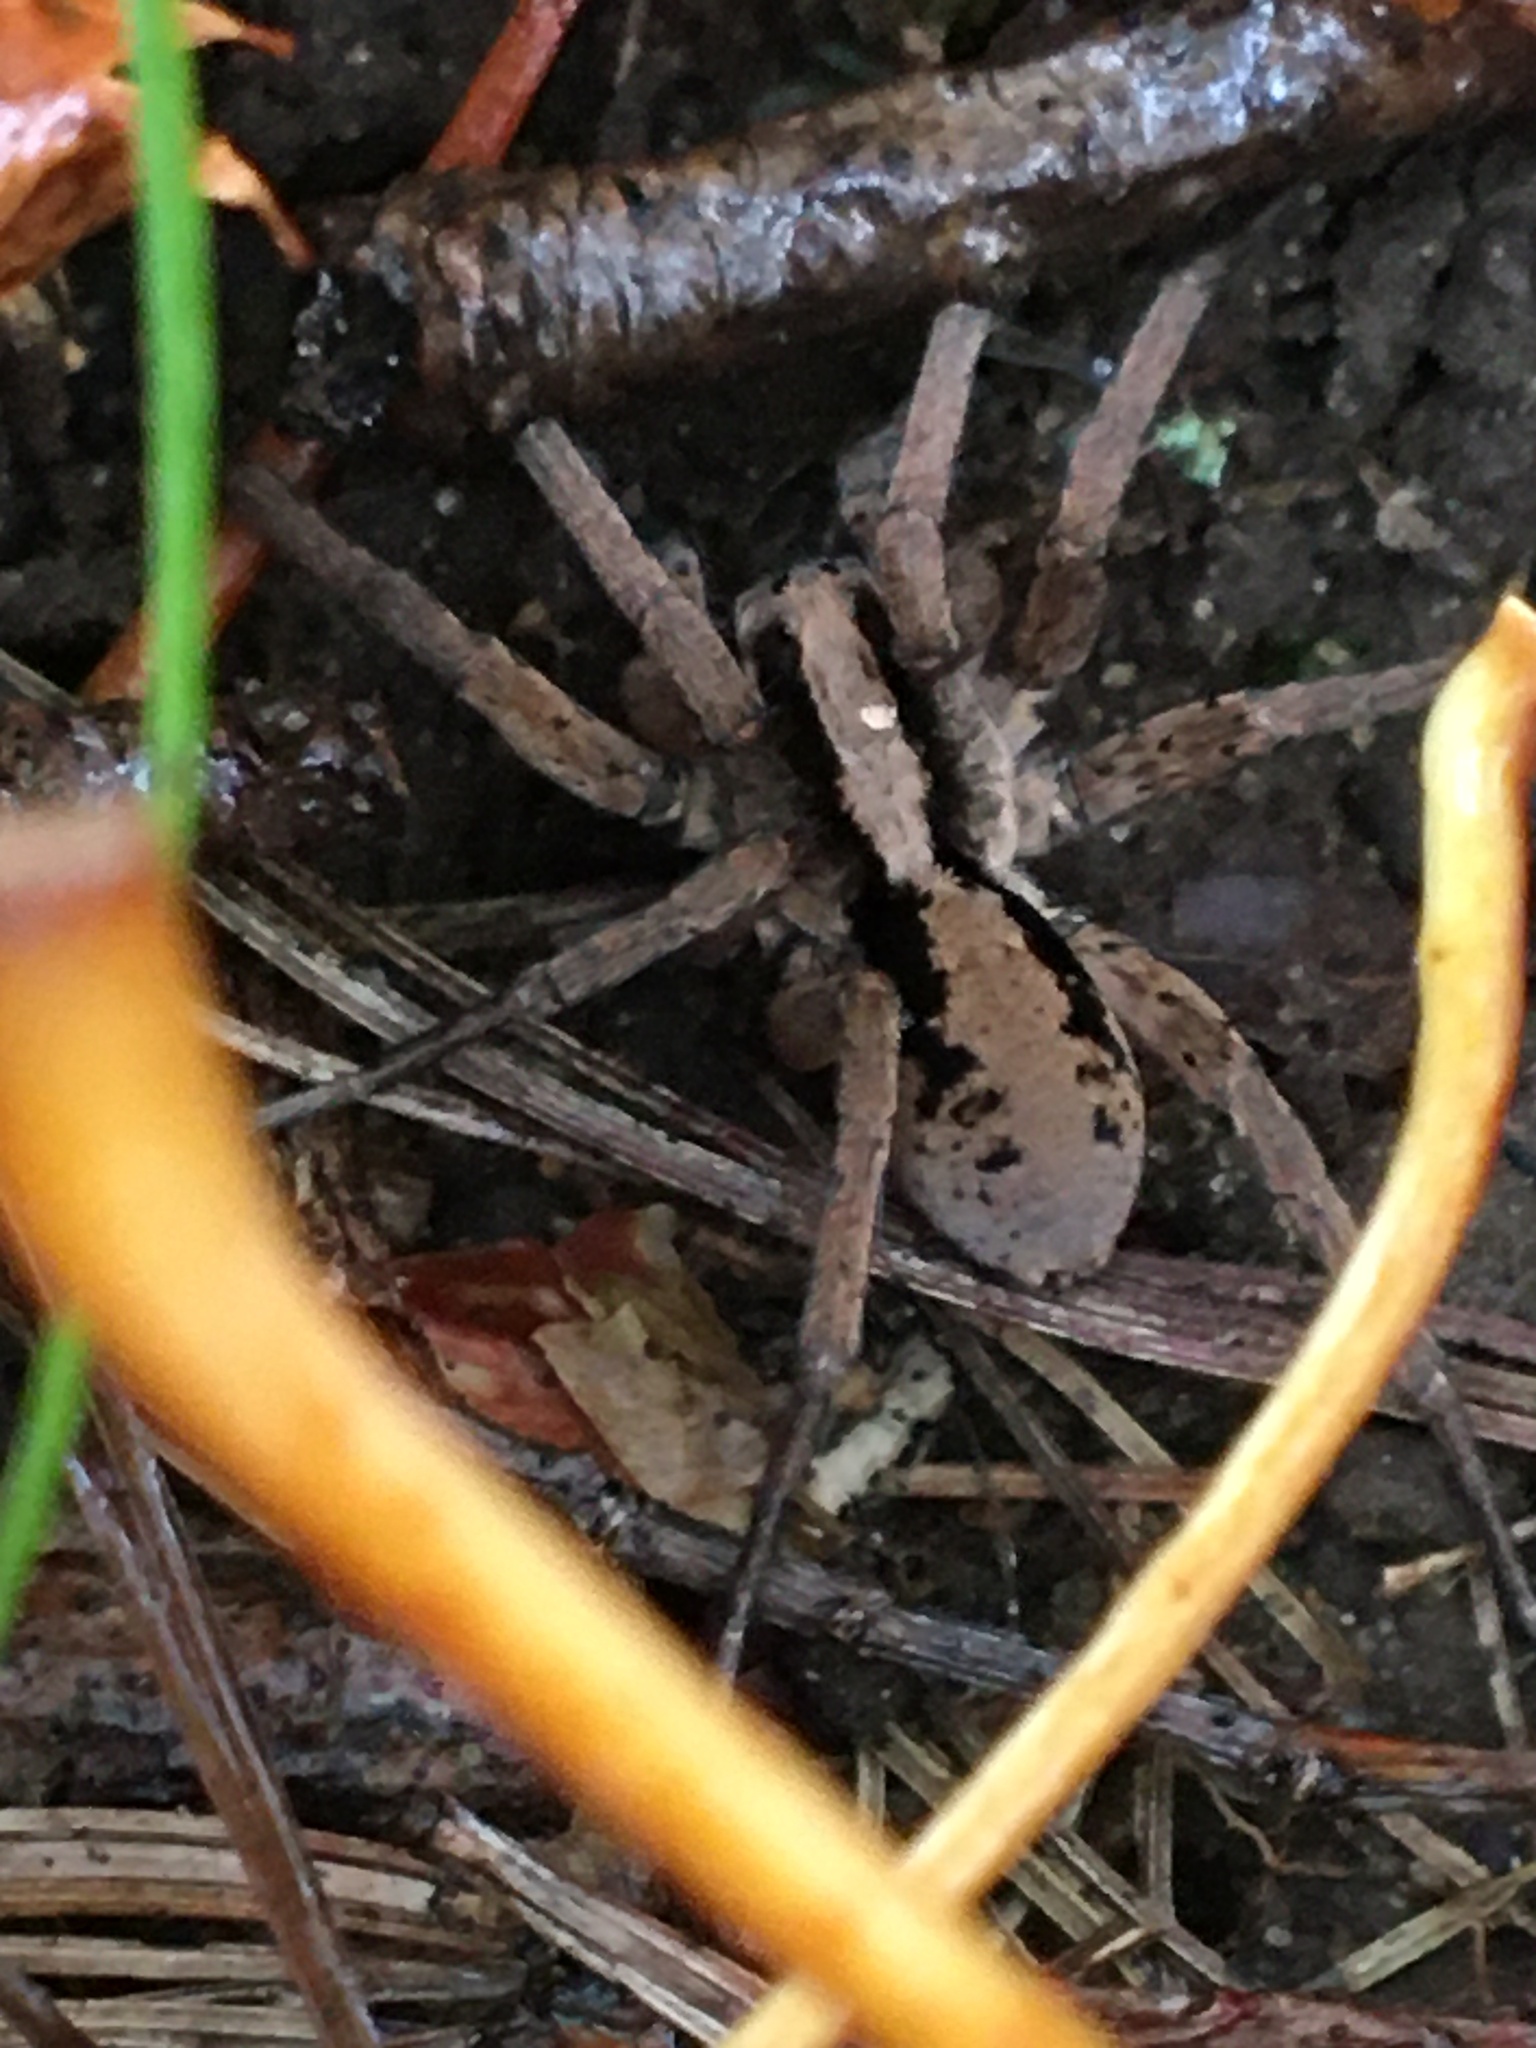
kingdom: Animalia
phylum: Arthropoda
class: Arachnida
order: Araneae
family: Lycosidae
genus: Gladicosa
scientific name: Gladicosa gulosa
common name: Drumming sword wolf spider
